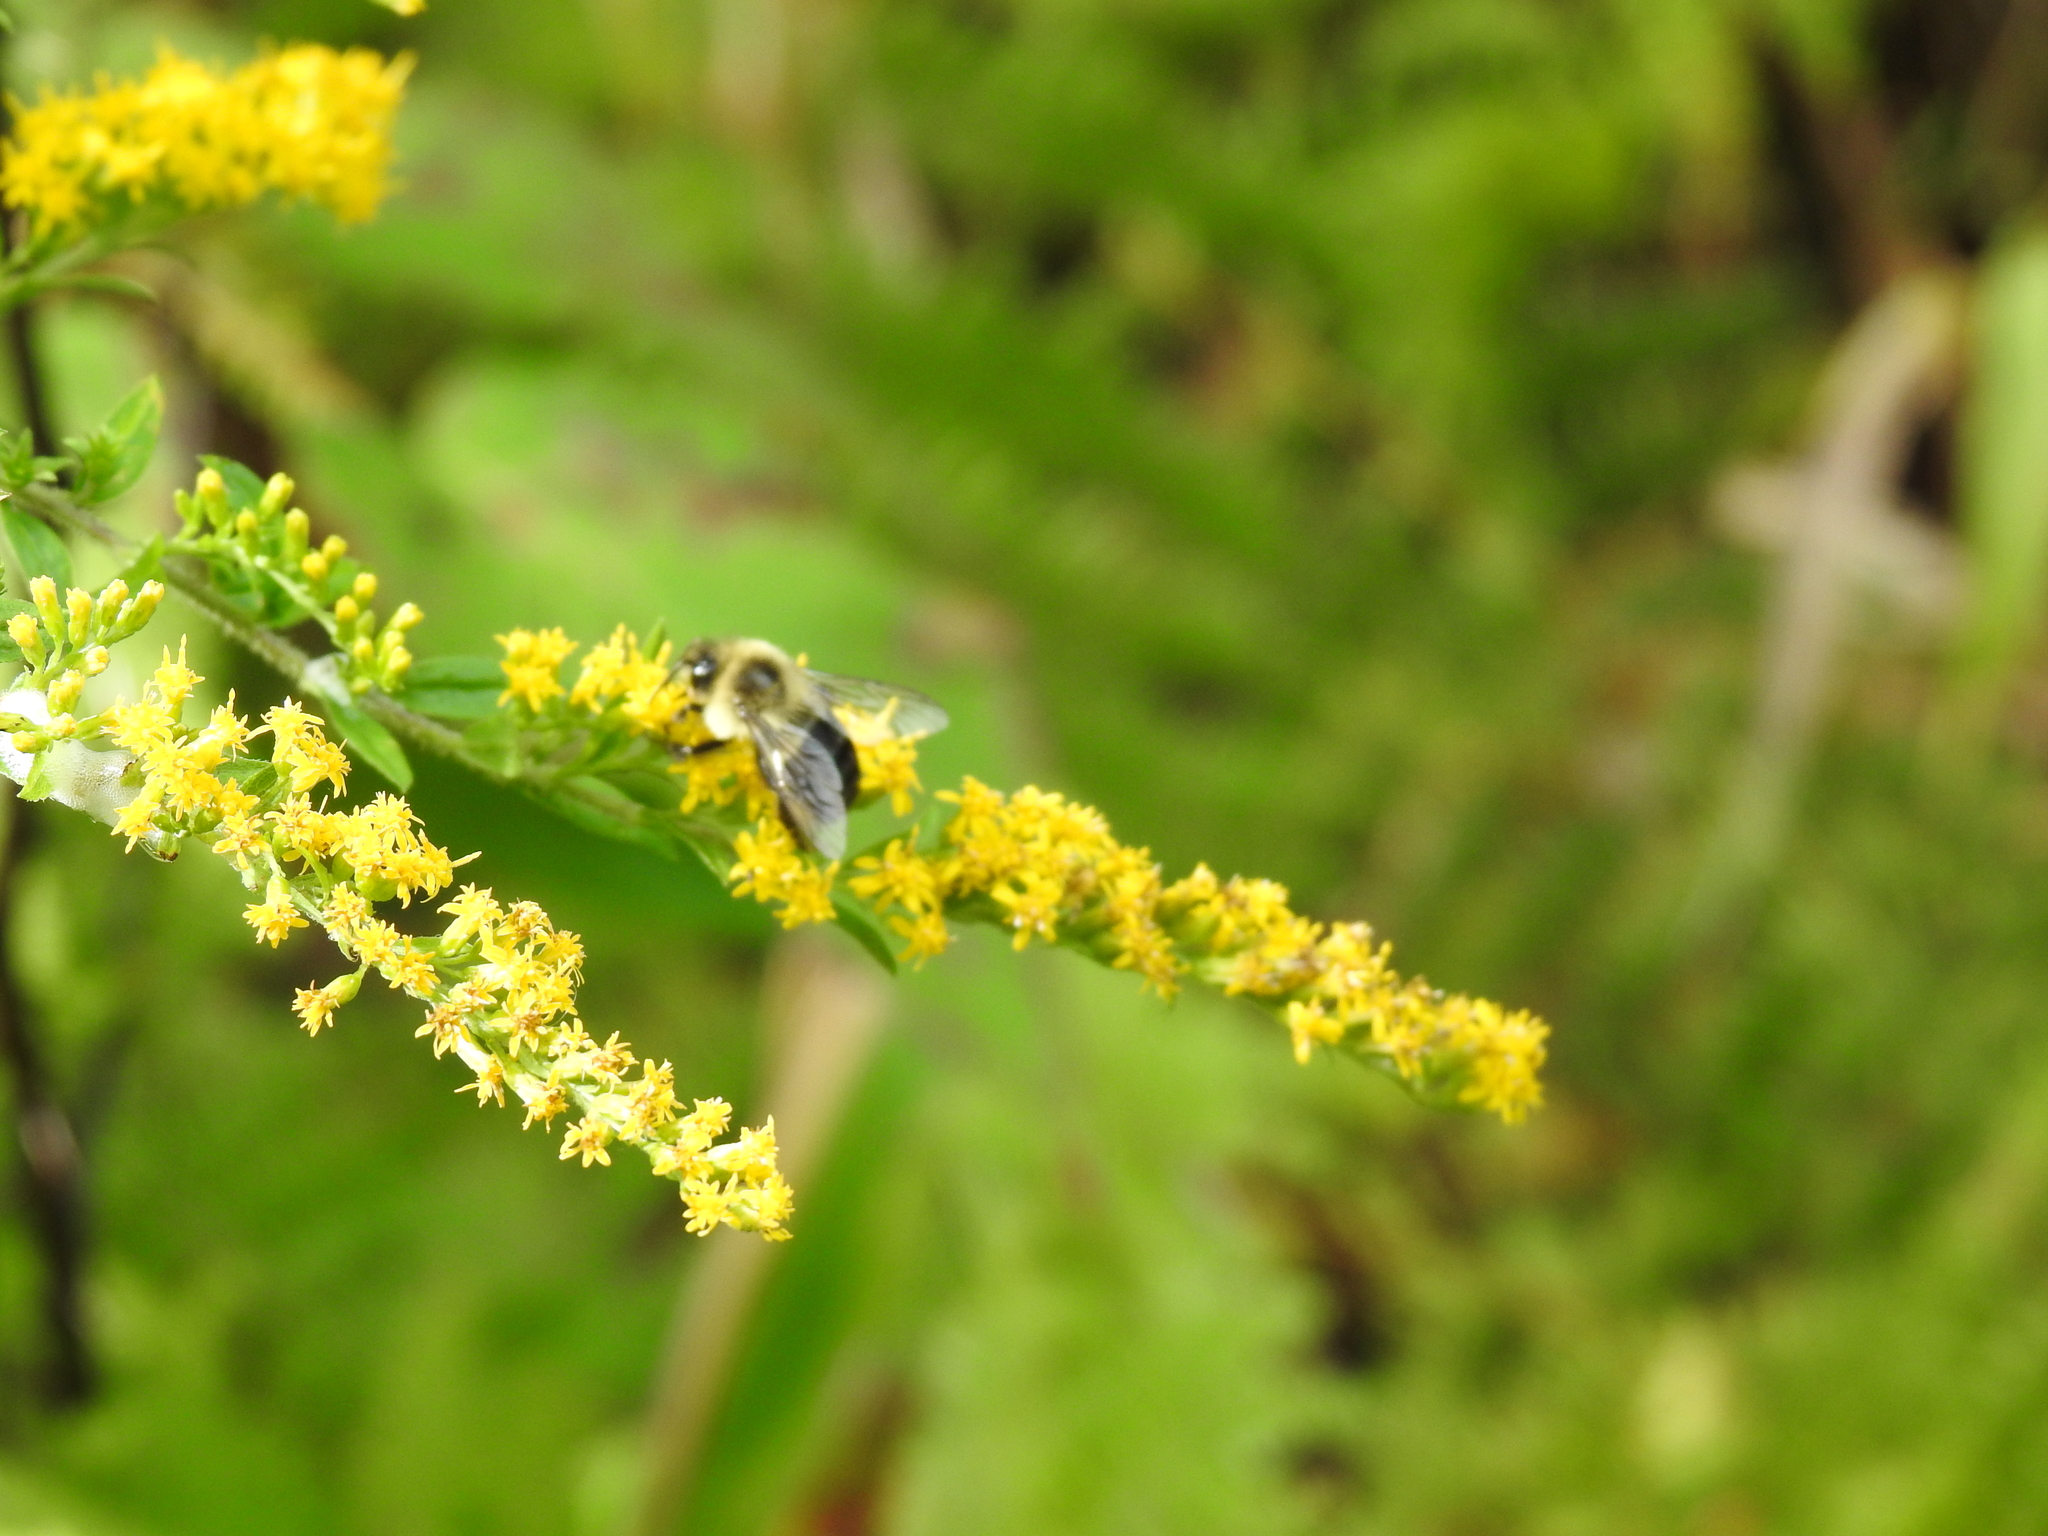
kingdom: Animalia
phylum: Arthropoda
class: Insecta
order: Hymenoptera
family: Apidae
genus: Bombus
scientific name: Bombus impatiens
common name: Common eastern bumble bee
